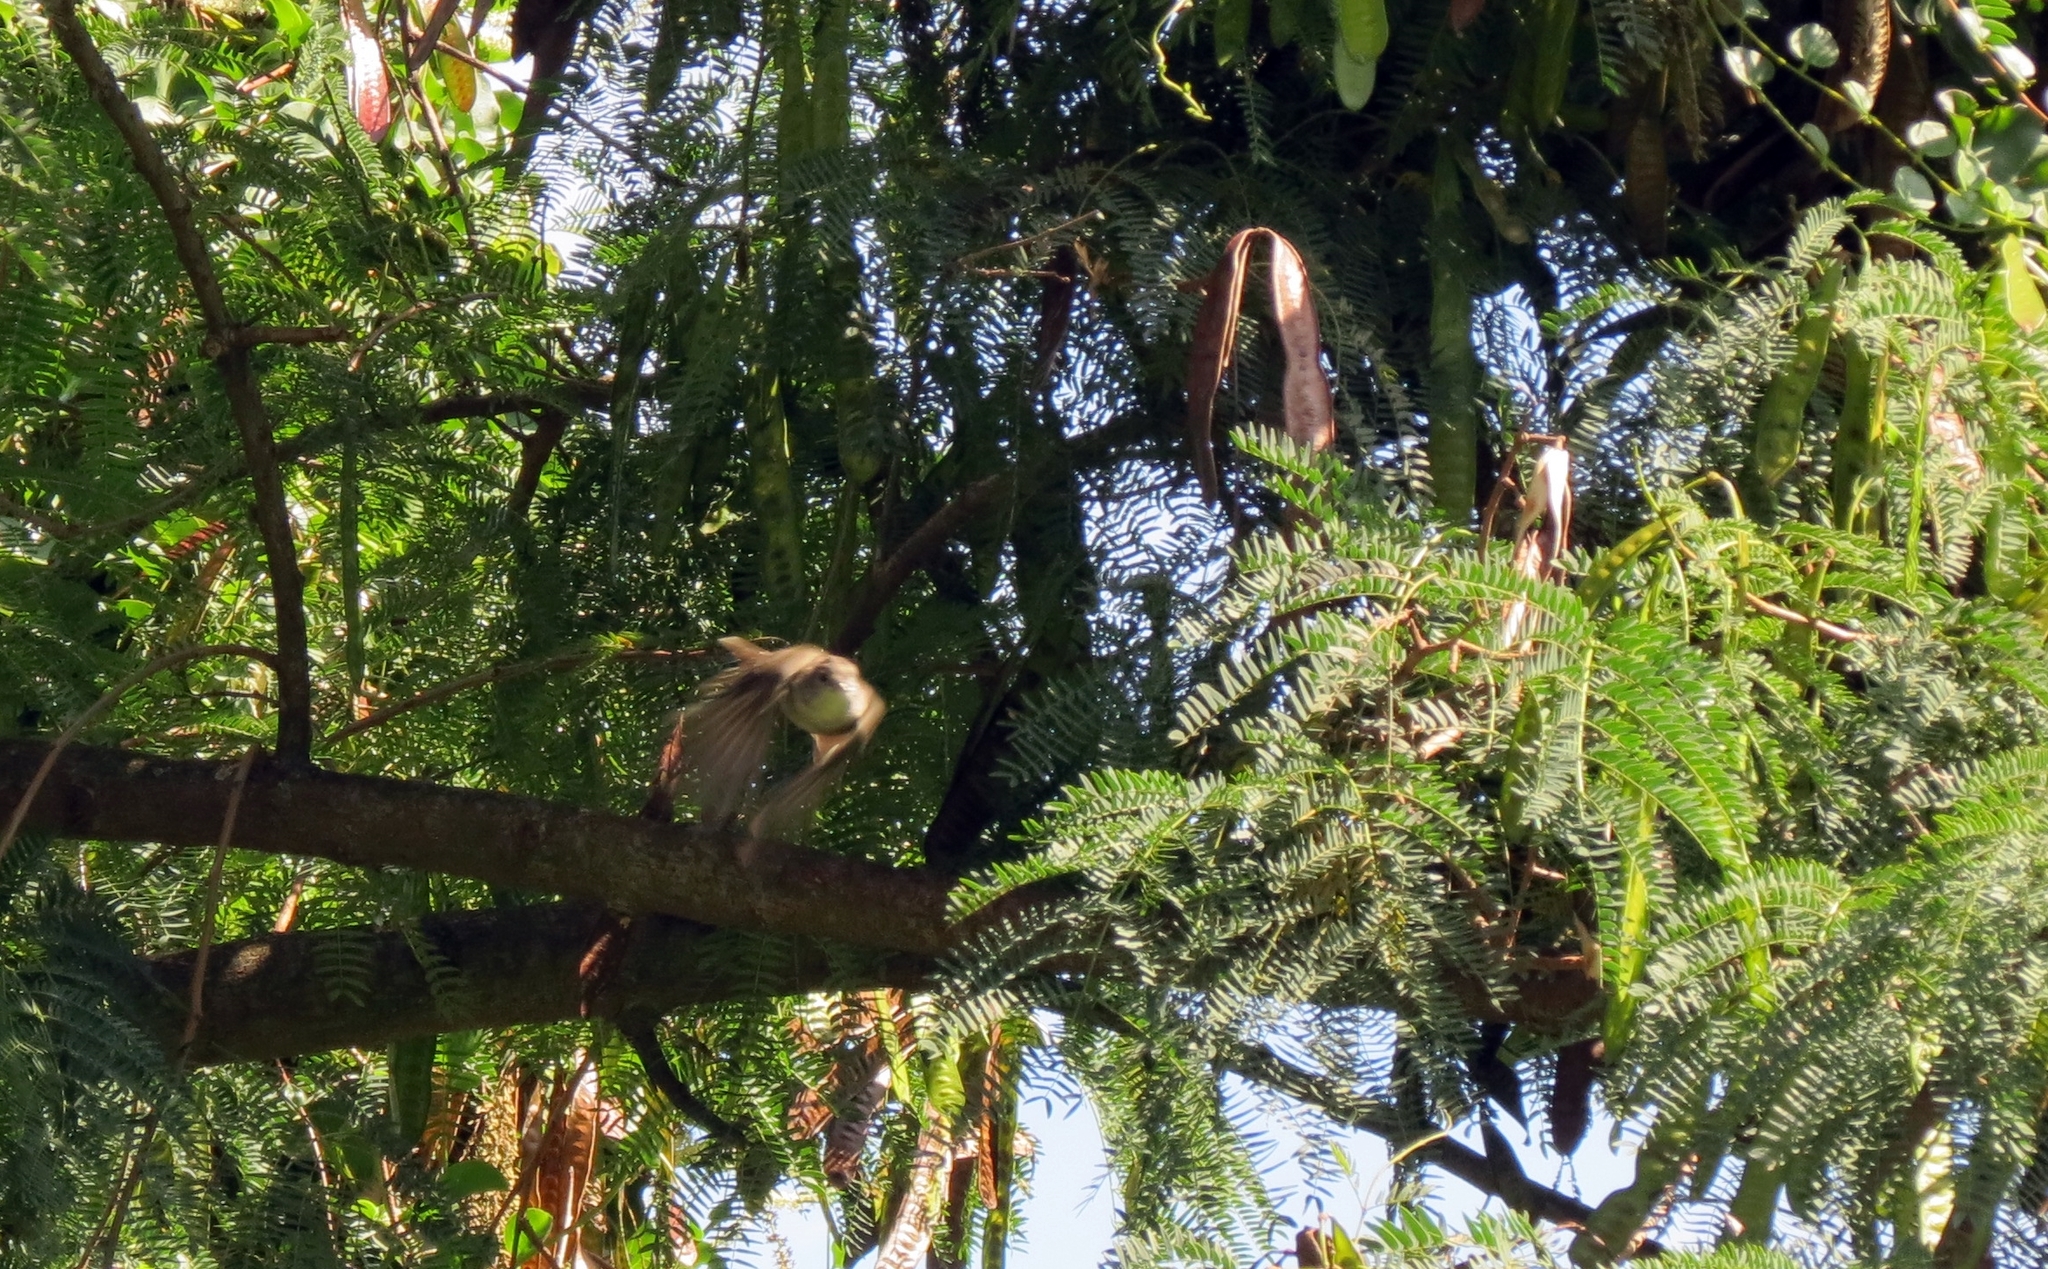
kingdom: Animalia
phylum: Chordata
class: Aves
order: Passeriformes
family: Tyrannidae
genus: Elaenia
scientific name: Elaenia flavogaster
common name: Yellow-bellied elaenia
